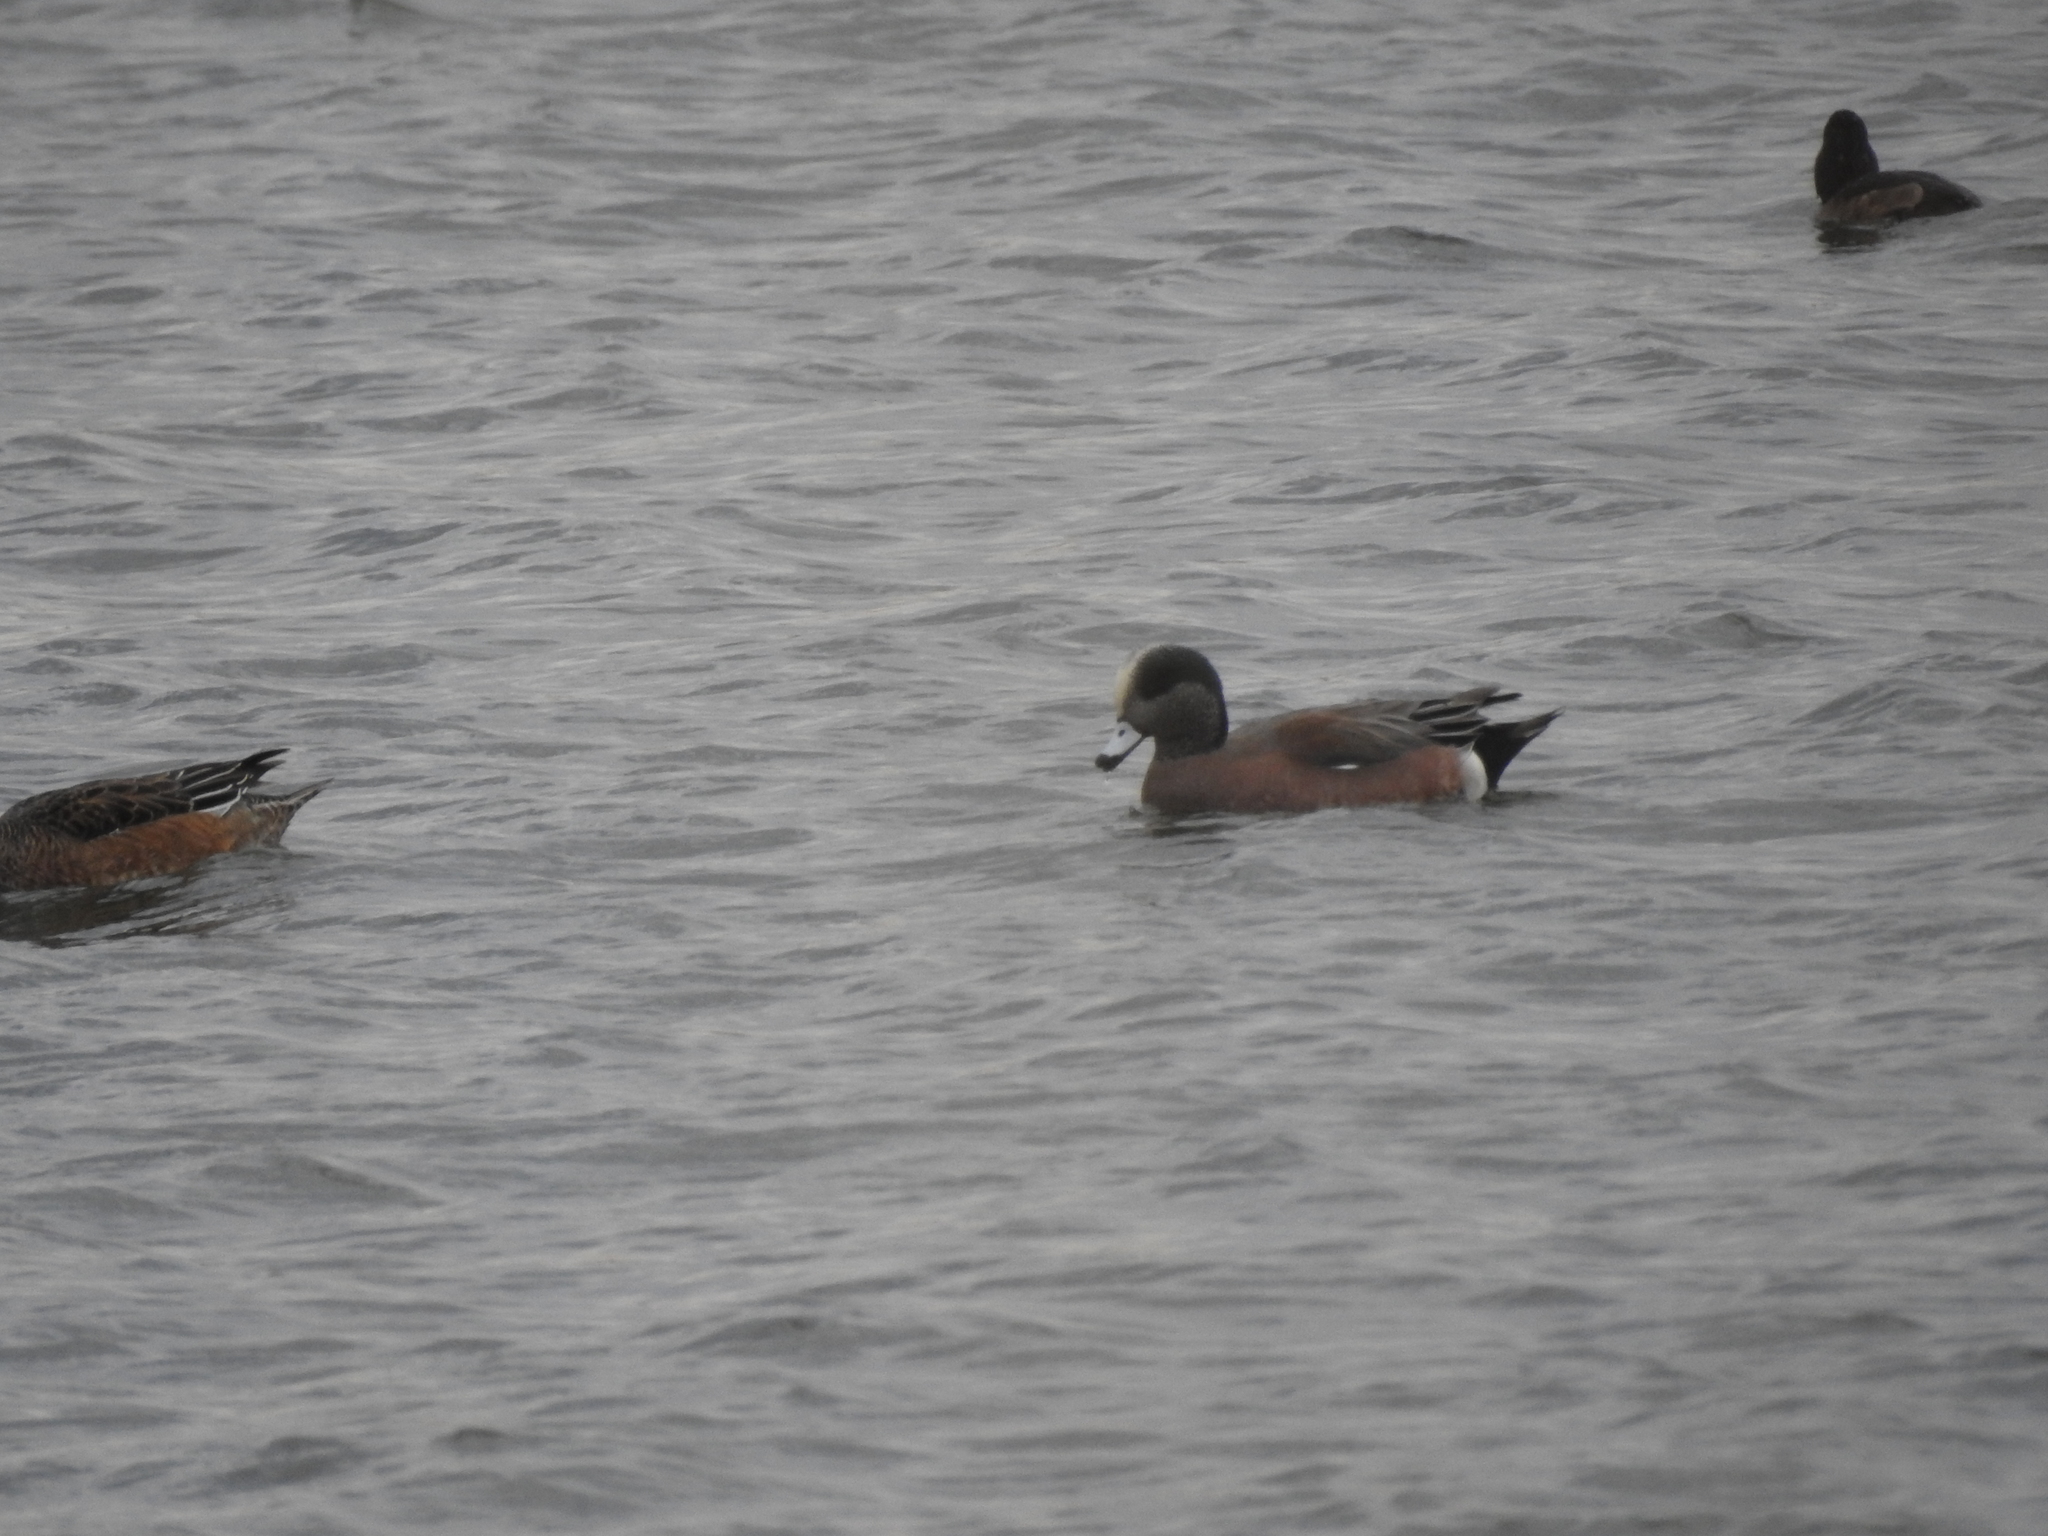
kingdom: Animalia
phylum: Chordata
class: Aves
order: Anseriformes
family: Anatidae
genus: Mareca
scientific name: Mareca americana
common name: American wigeon
